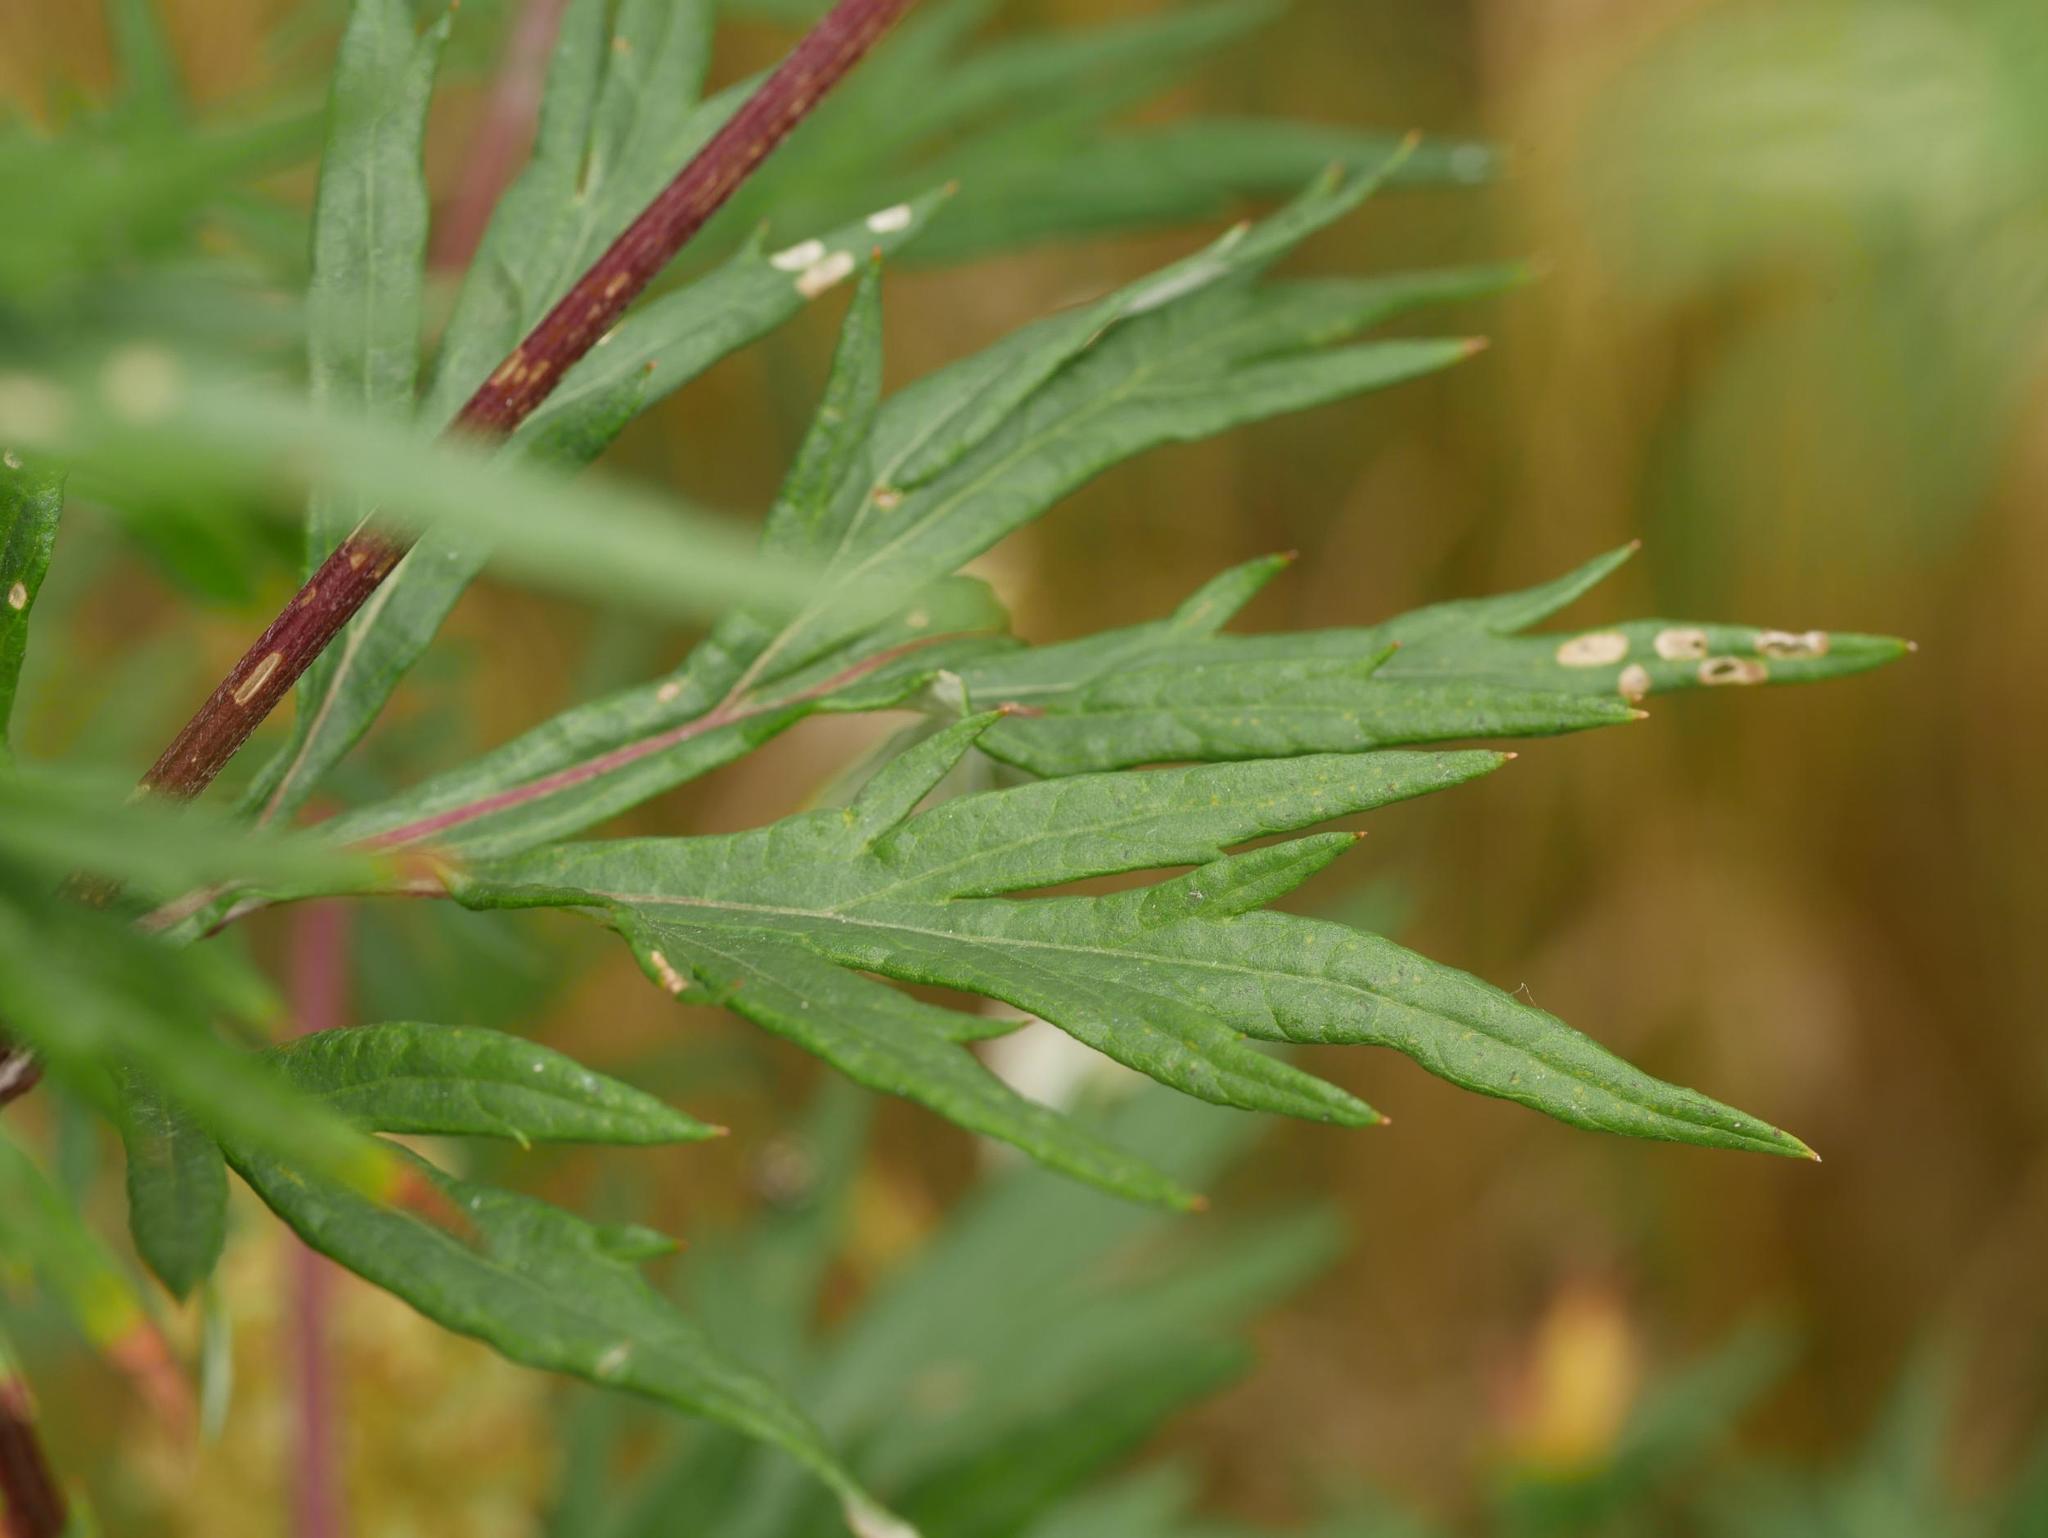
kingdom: Plantae
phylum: Tracheophyta
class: Magnoliopsida
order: Asterales
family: Asteraceae
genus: Artemisia
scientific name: Artemisia vulgaris
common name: Mugwort
